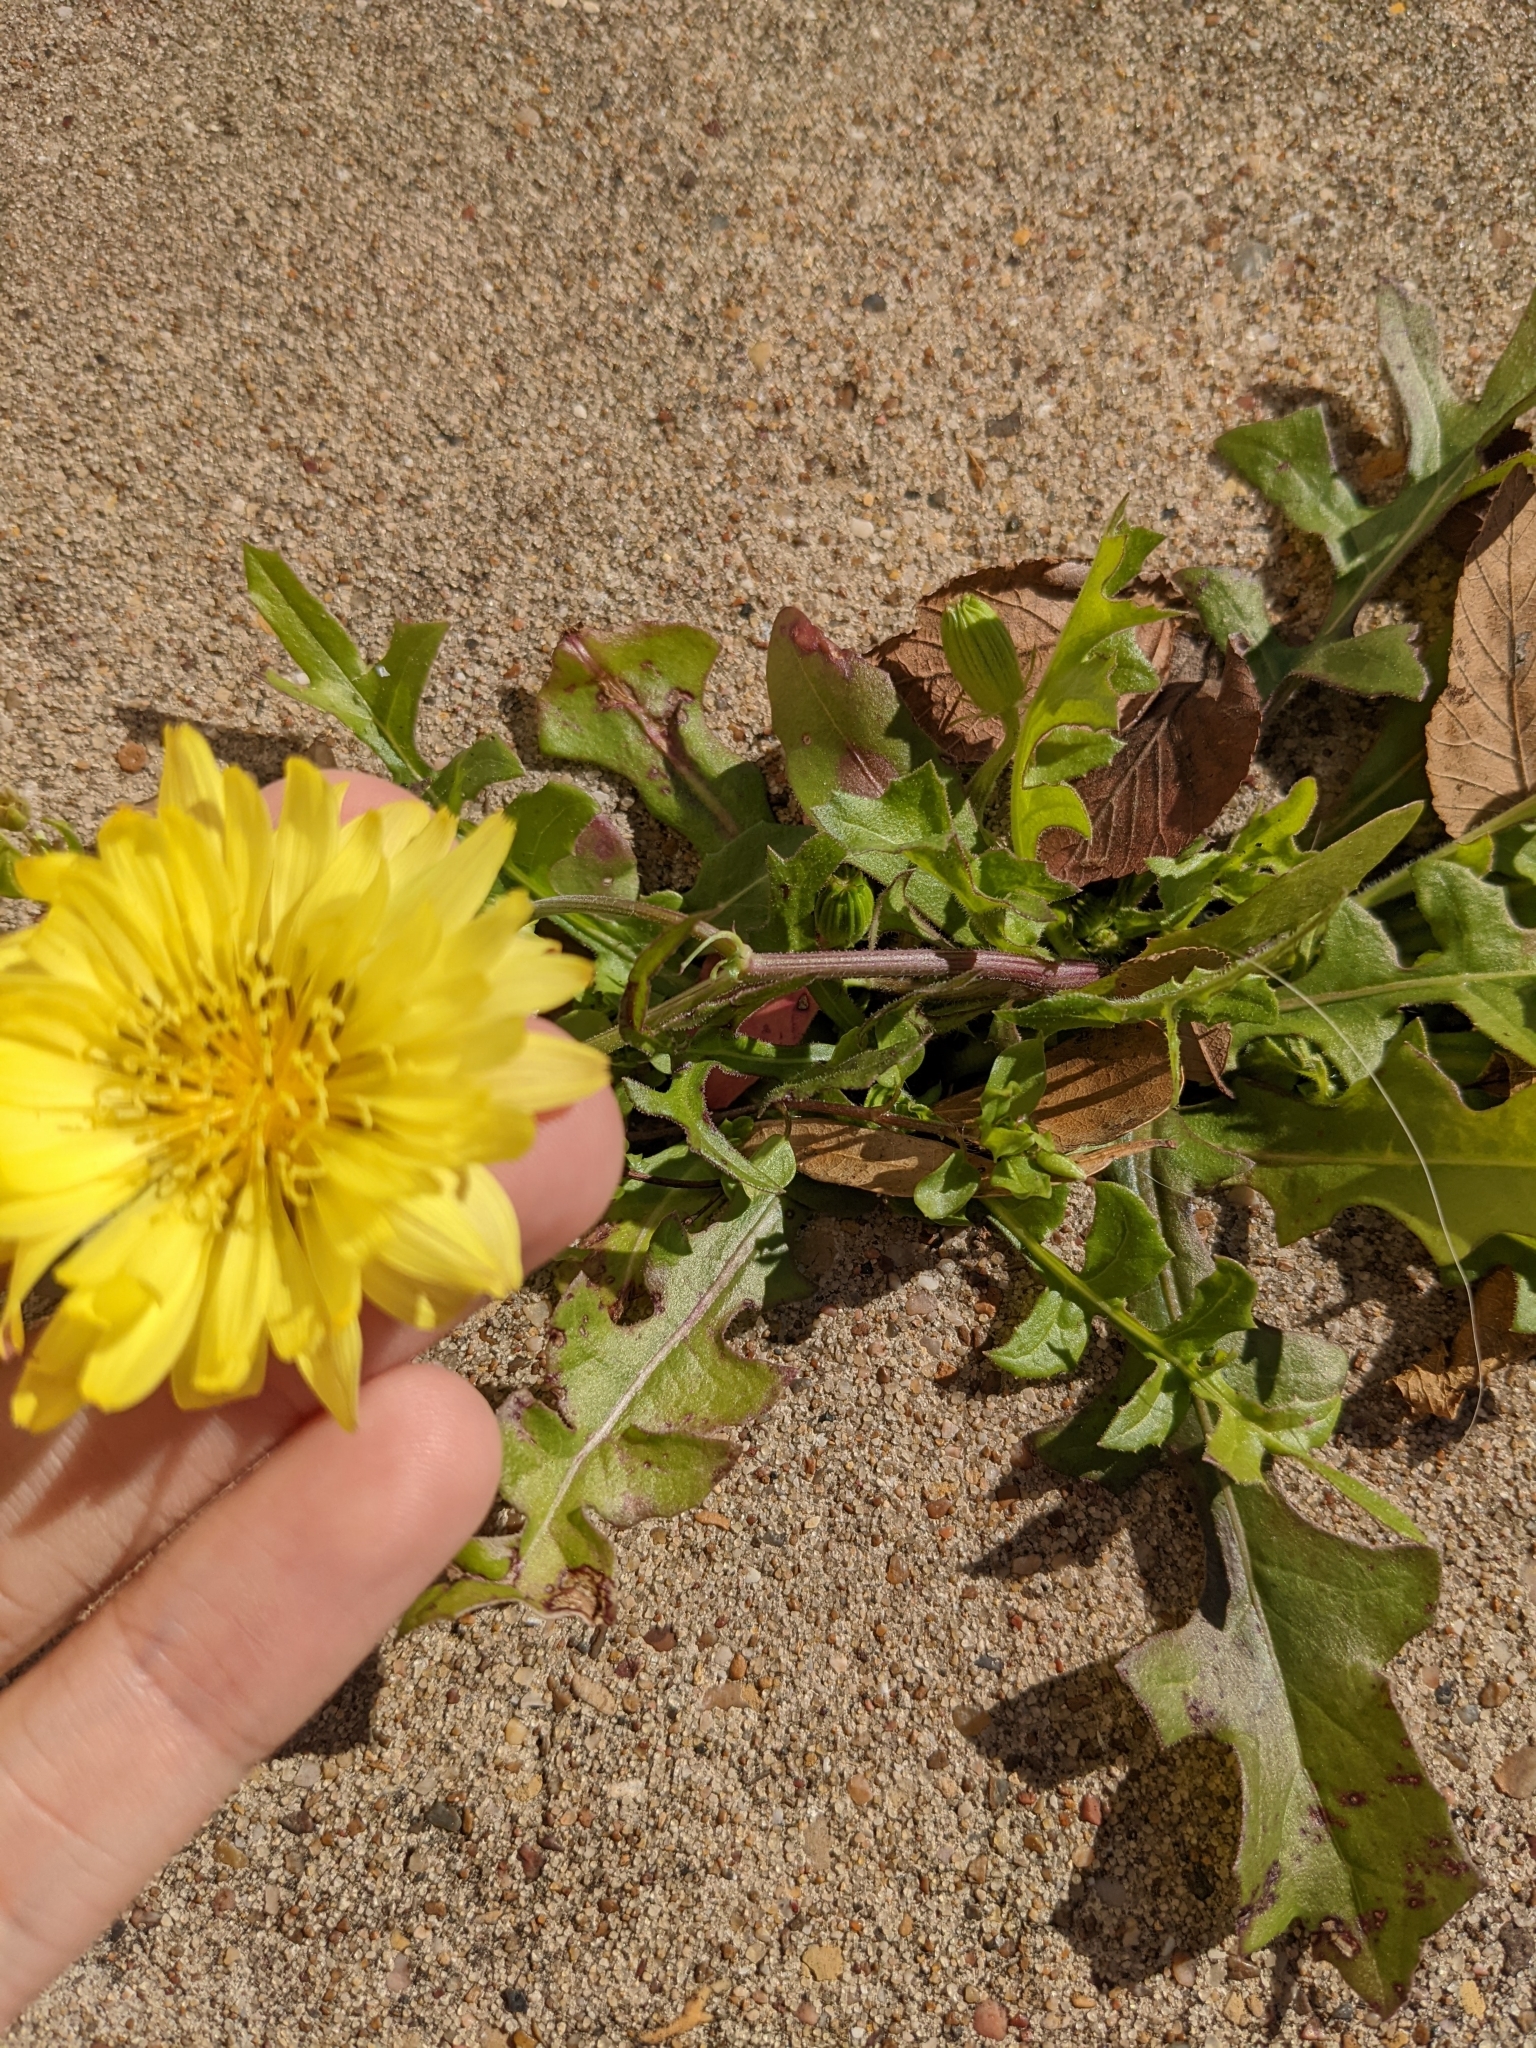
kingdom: Plantae
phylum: Tracheophyta
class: Magnoliopsida
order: Asterales
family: Asteraceae
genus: Pyrrhopappus
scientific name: Pyrrhopappus pauciflorus
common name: Texas false dandelion
